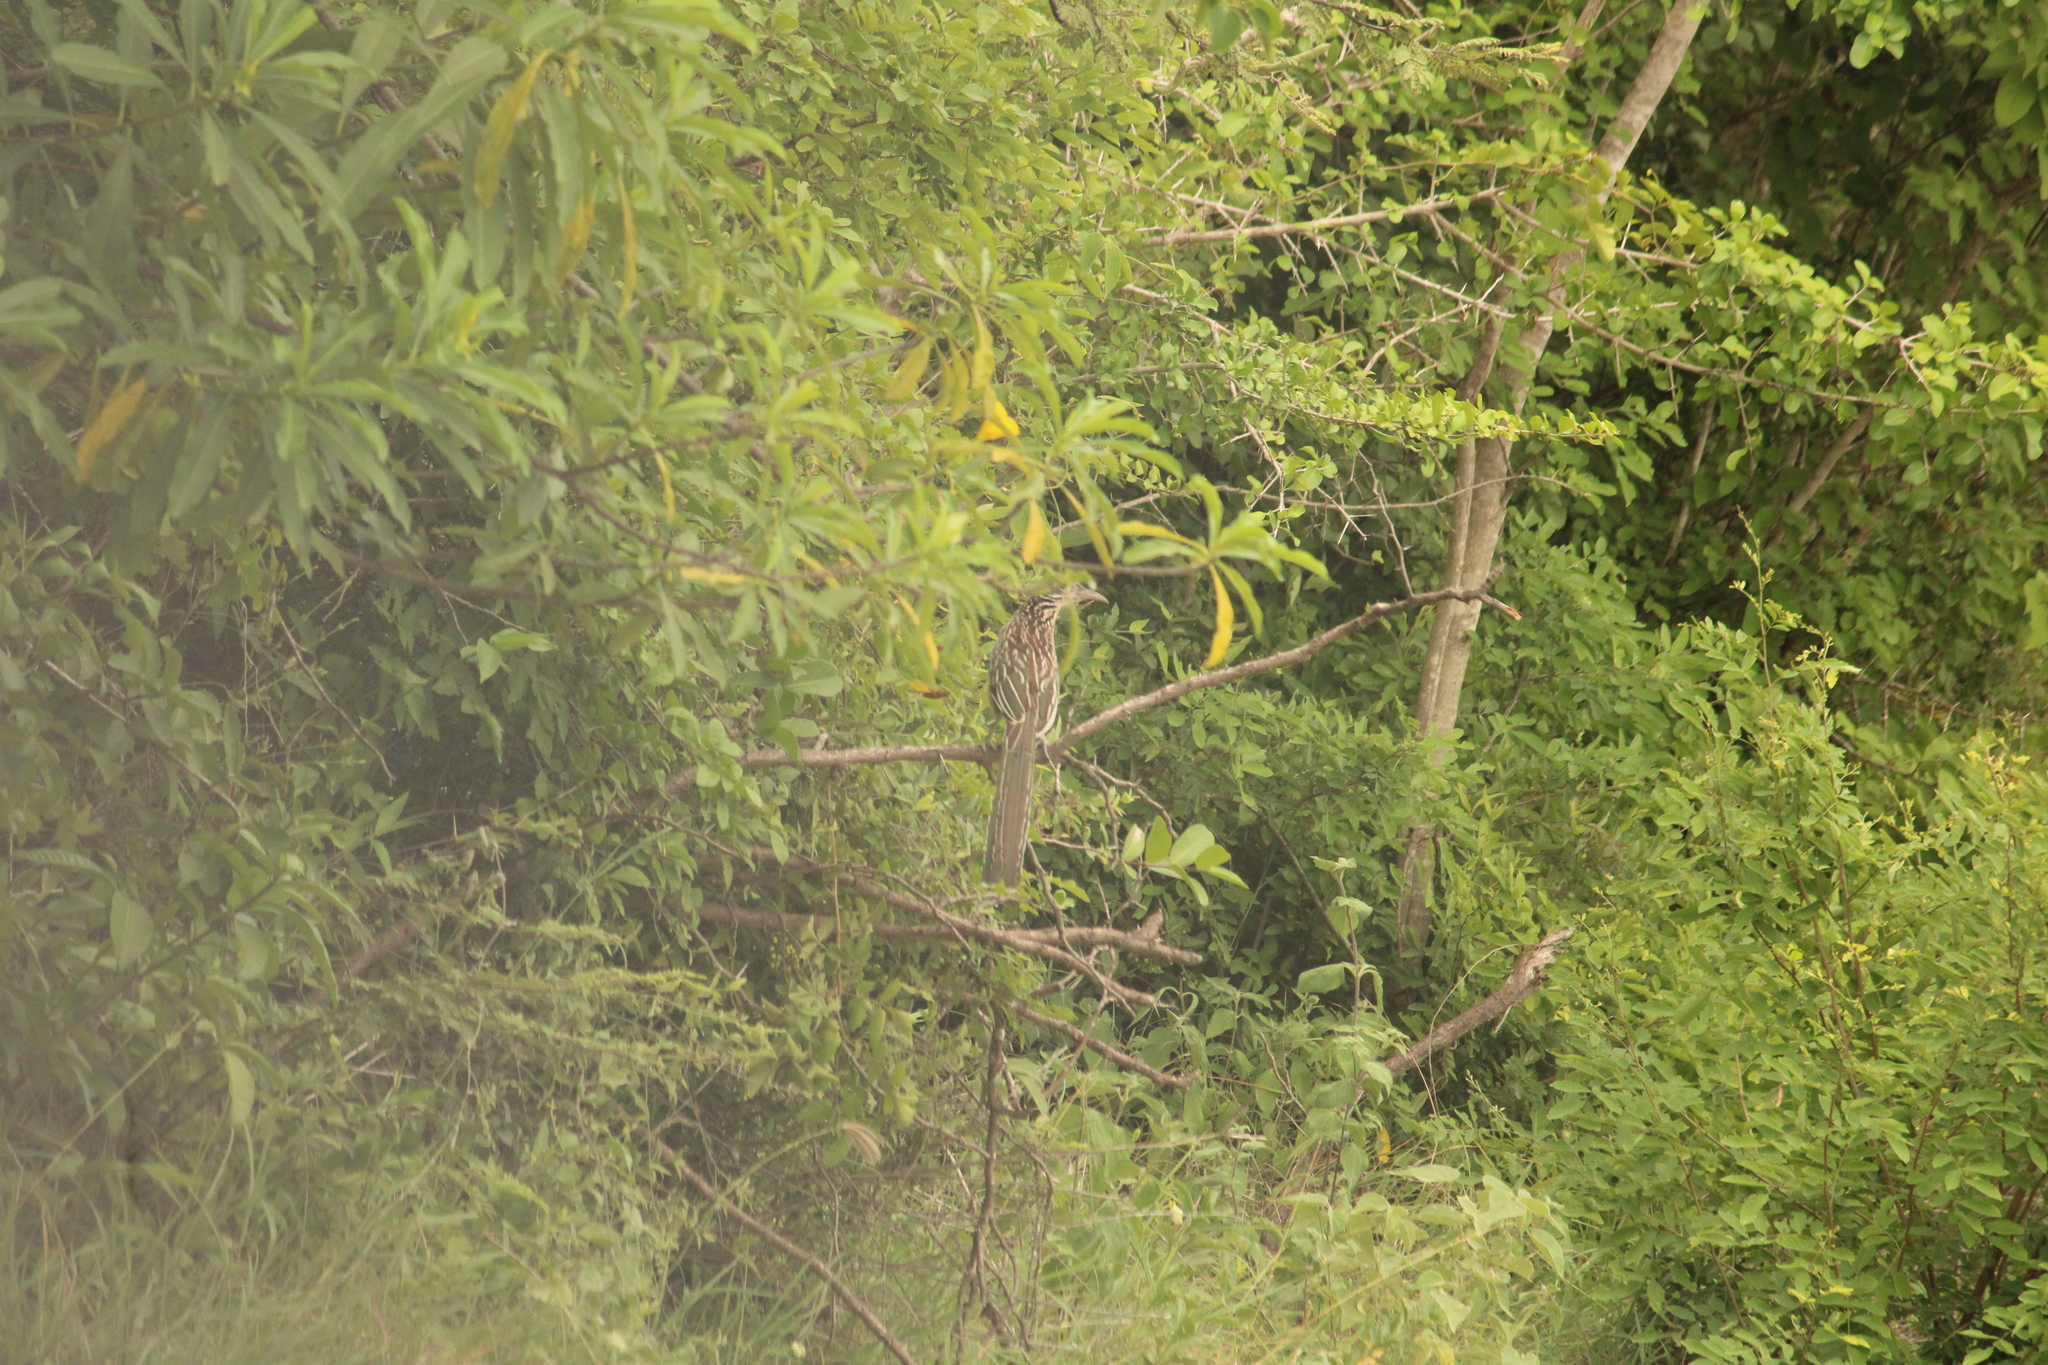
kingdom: Animalia
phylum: Chordata
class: Aves
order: Cuculiformes
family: Cuculidae
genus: Geococcyx
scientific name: Geococcyx velox
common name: Lesser roadrunner
